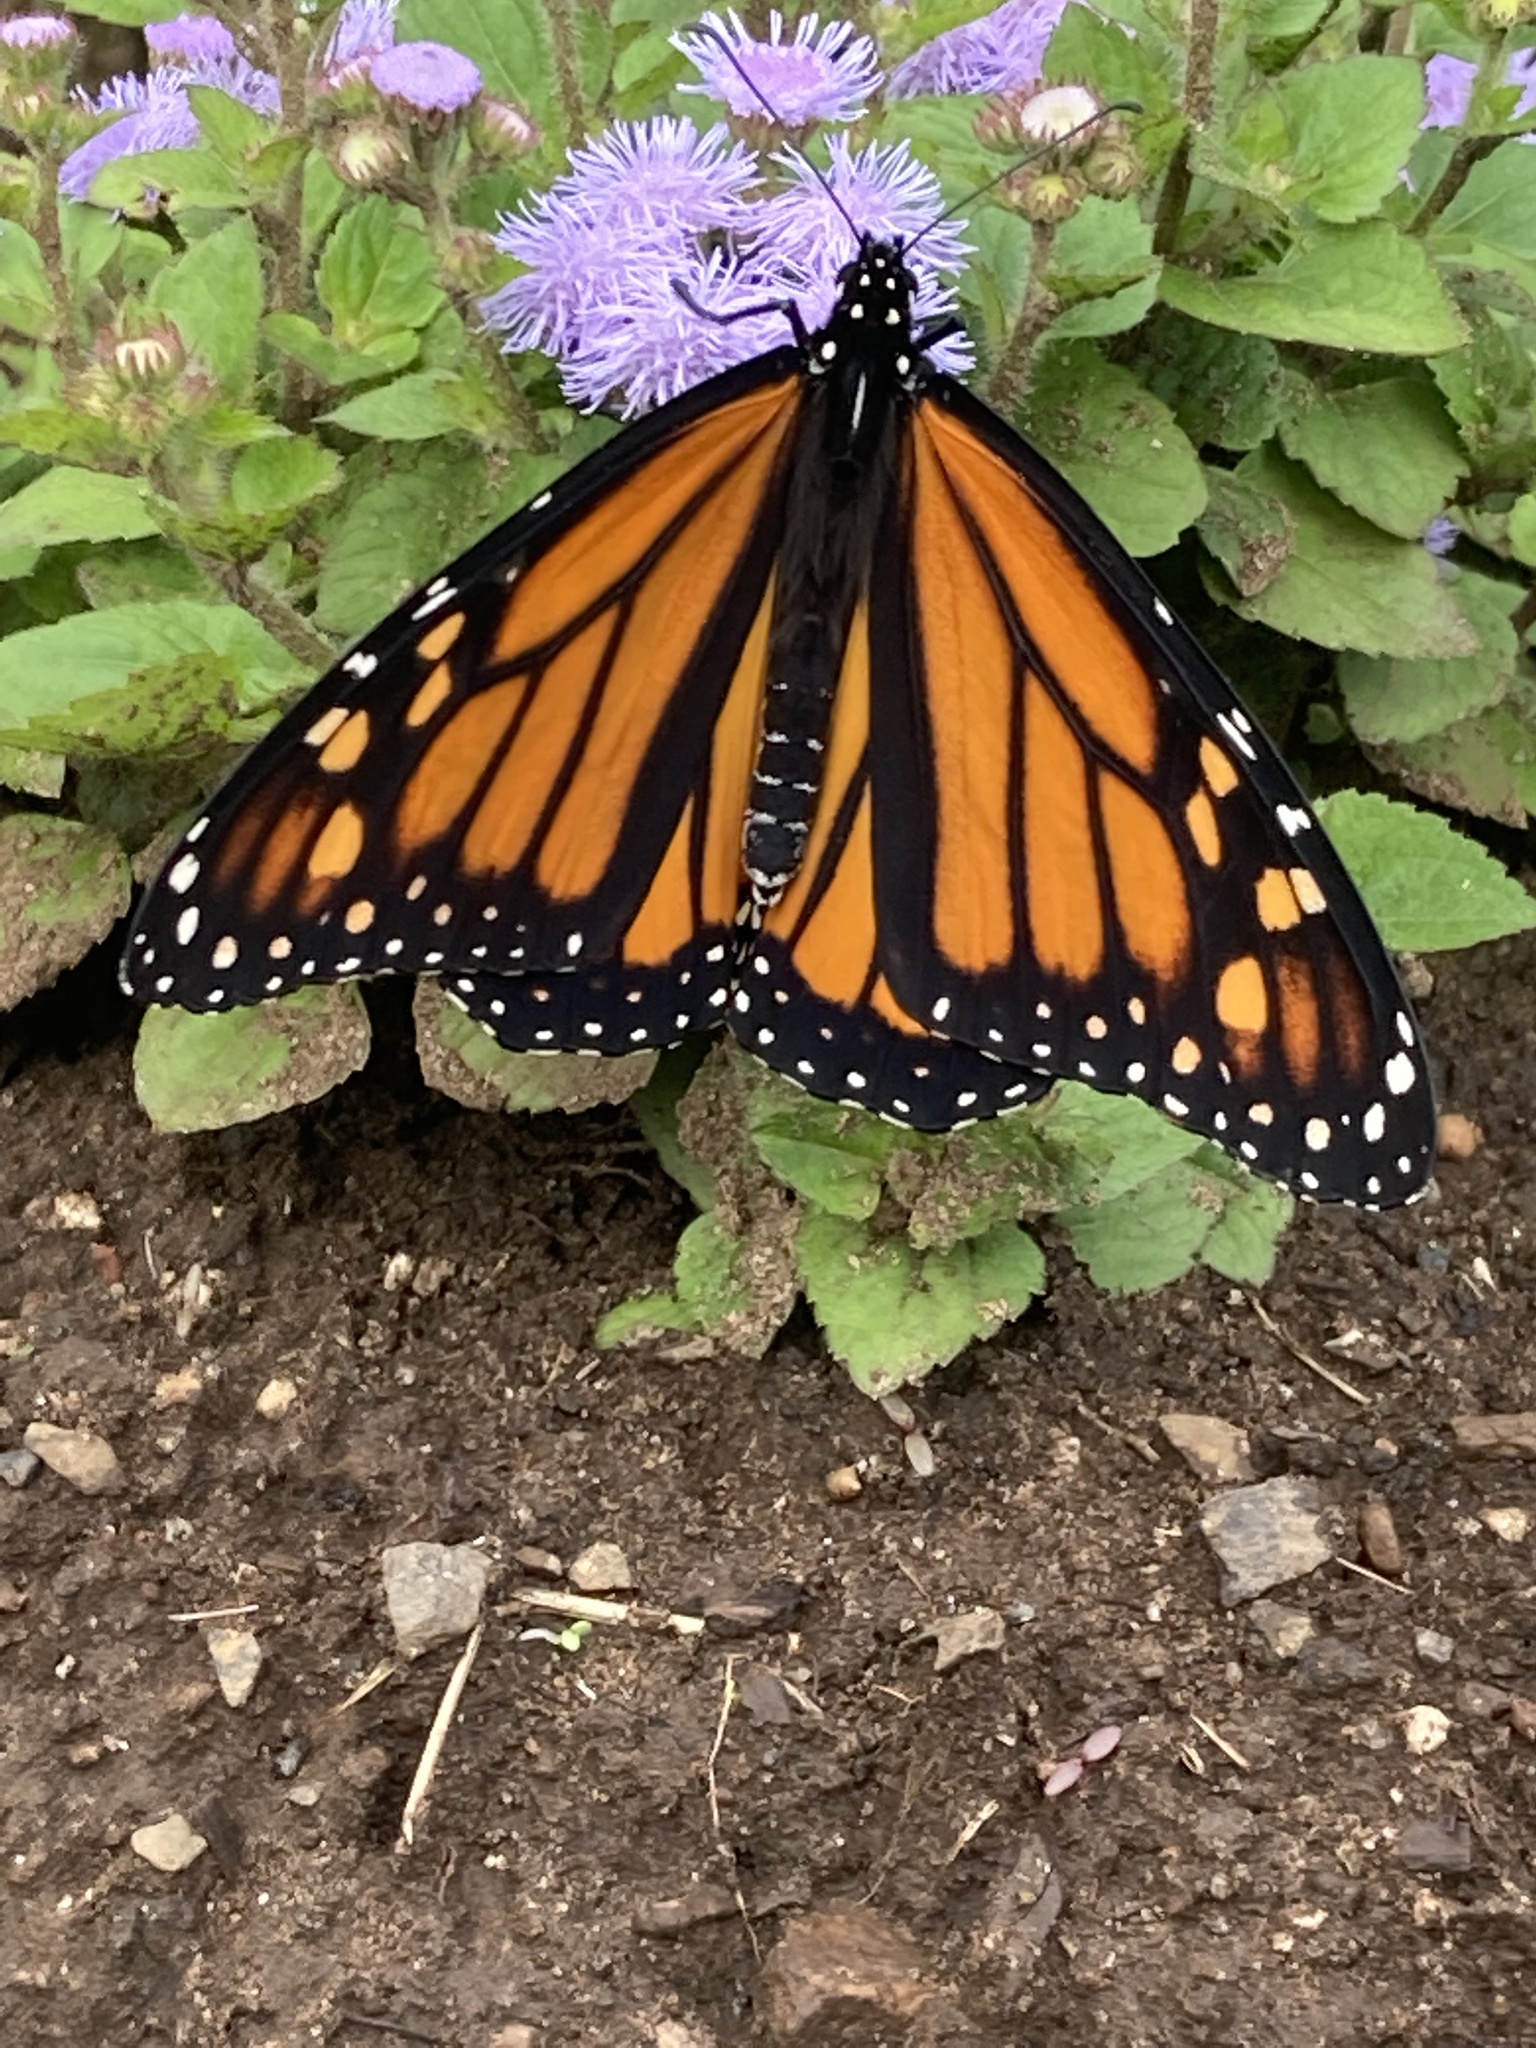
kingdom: Animalia
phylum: Arthropoda
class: Insecta
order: Lepidoptera
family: Nymphalidae
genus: Danaus
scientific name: Danaus plexippus
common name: Monarch
